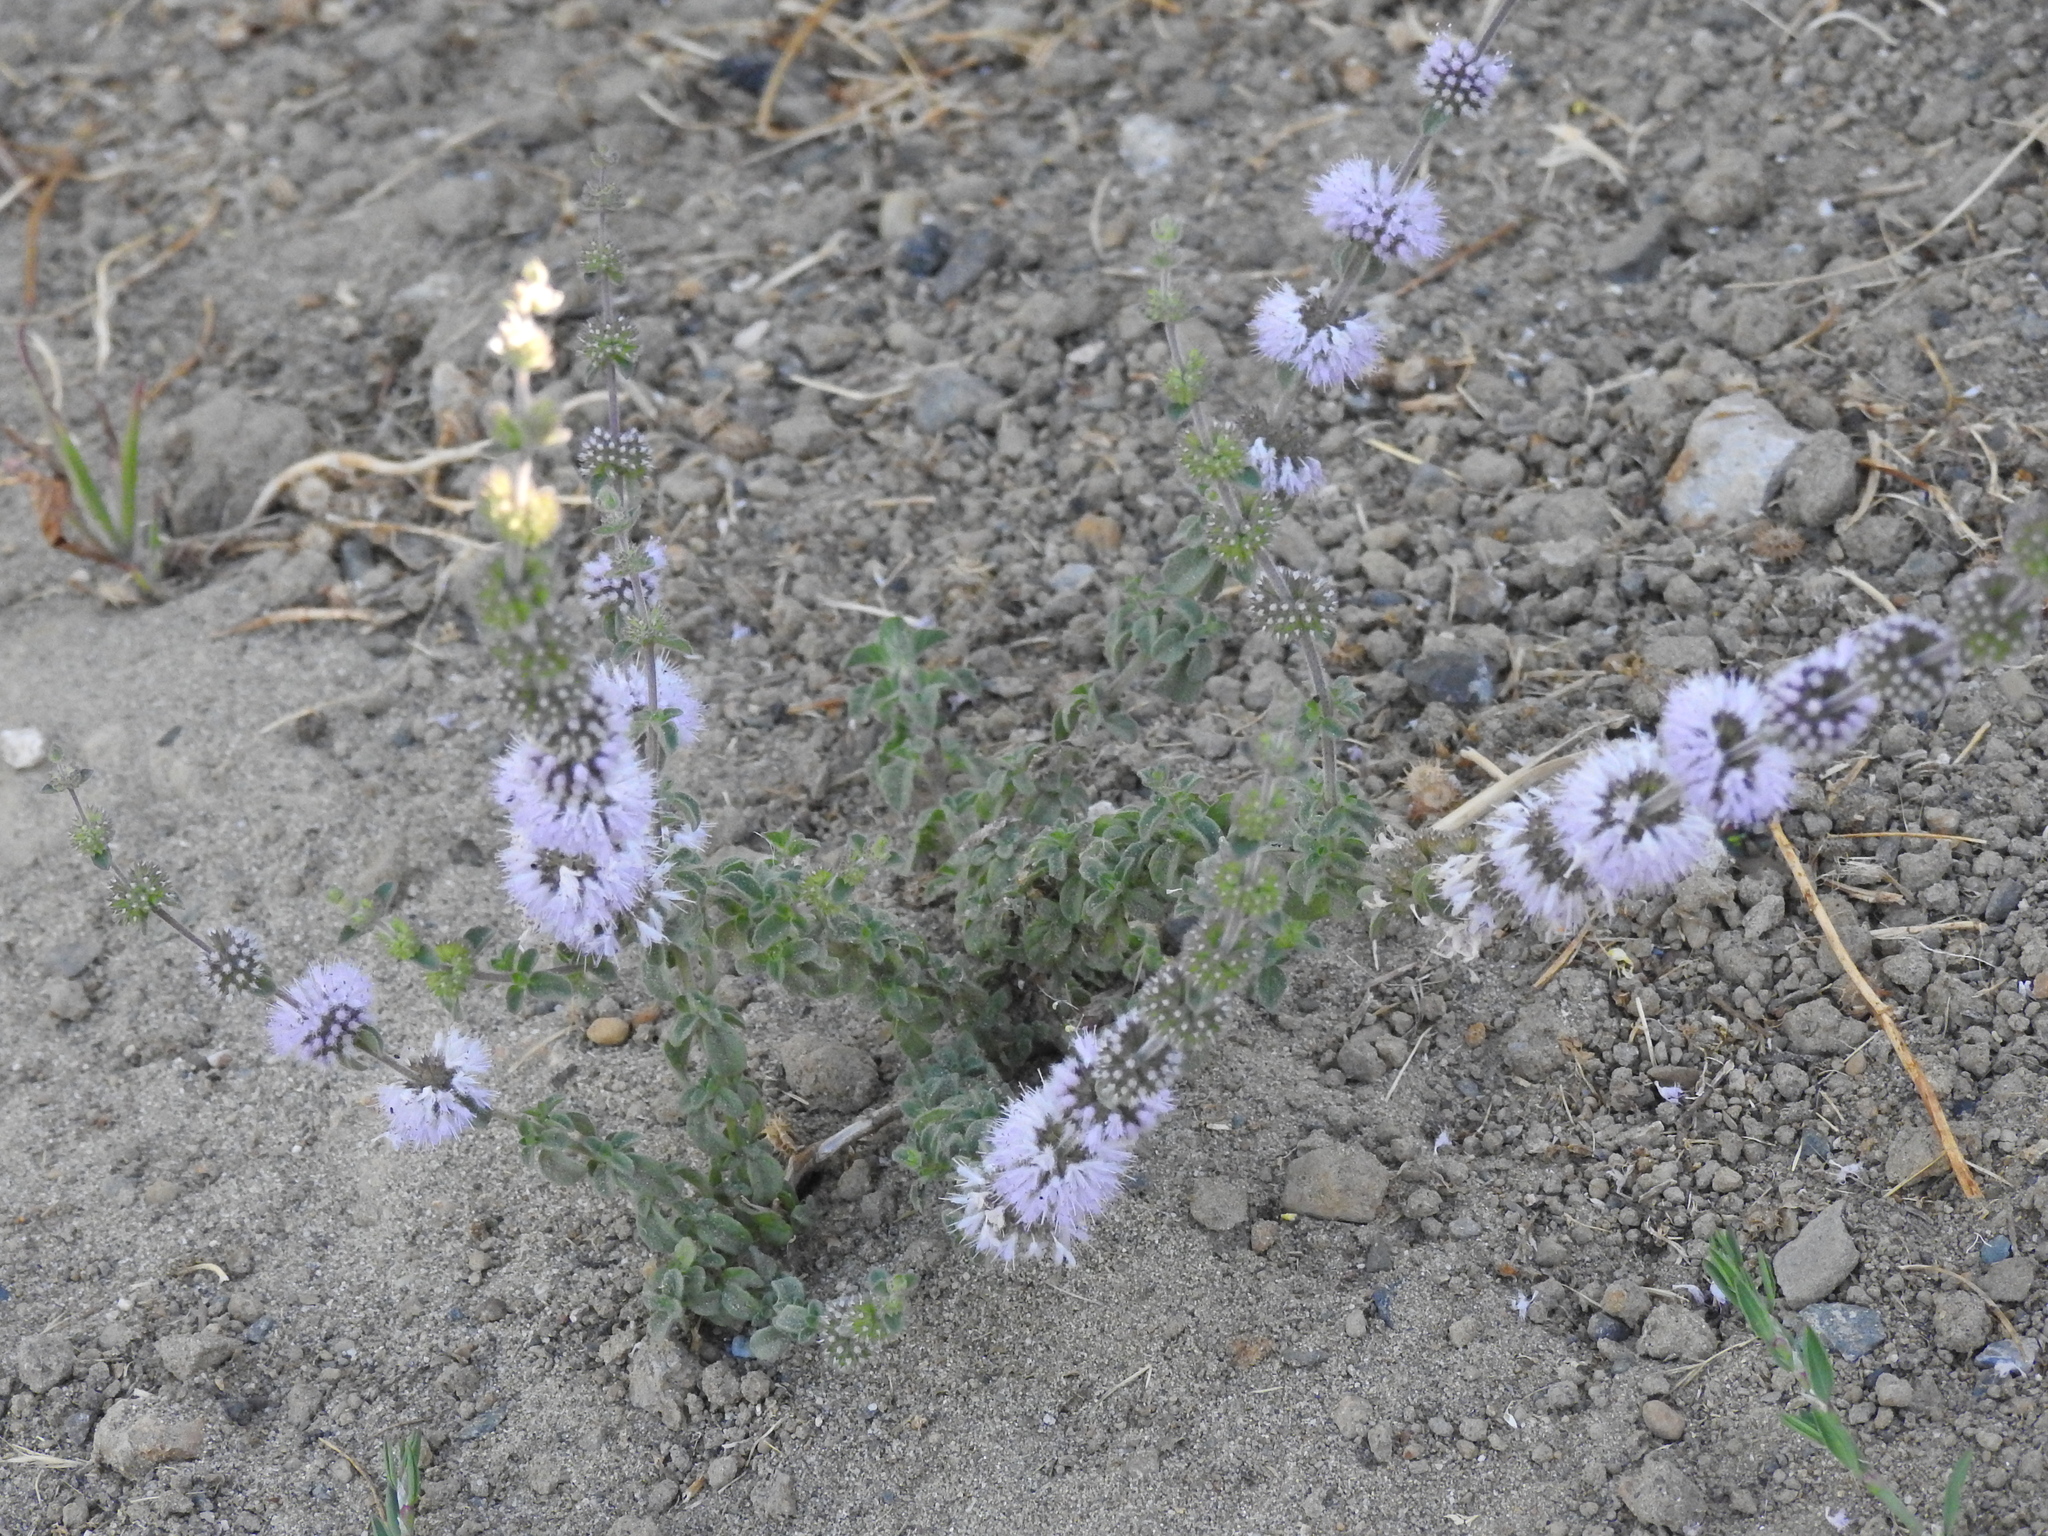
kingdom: Plantae
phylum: Tracheophyta
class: Magnoliopsida
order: Lamiales
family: Lamiaceae
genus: Mentha
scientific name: Mentha pulegium
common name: Pennyroyal
